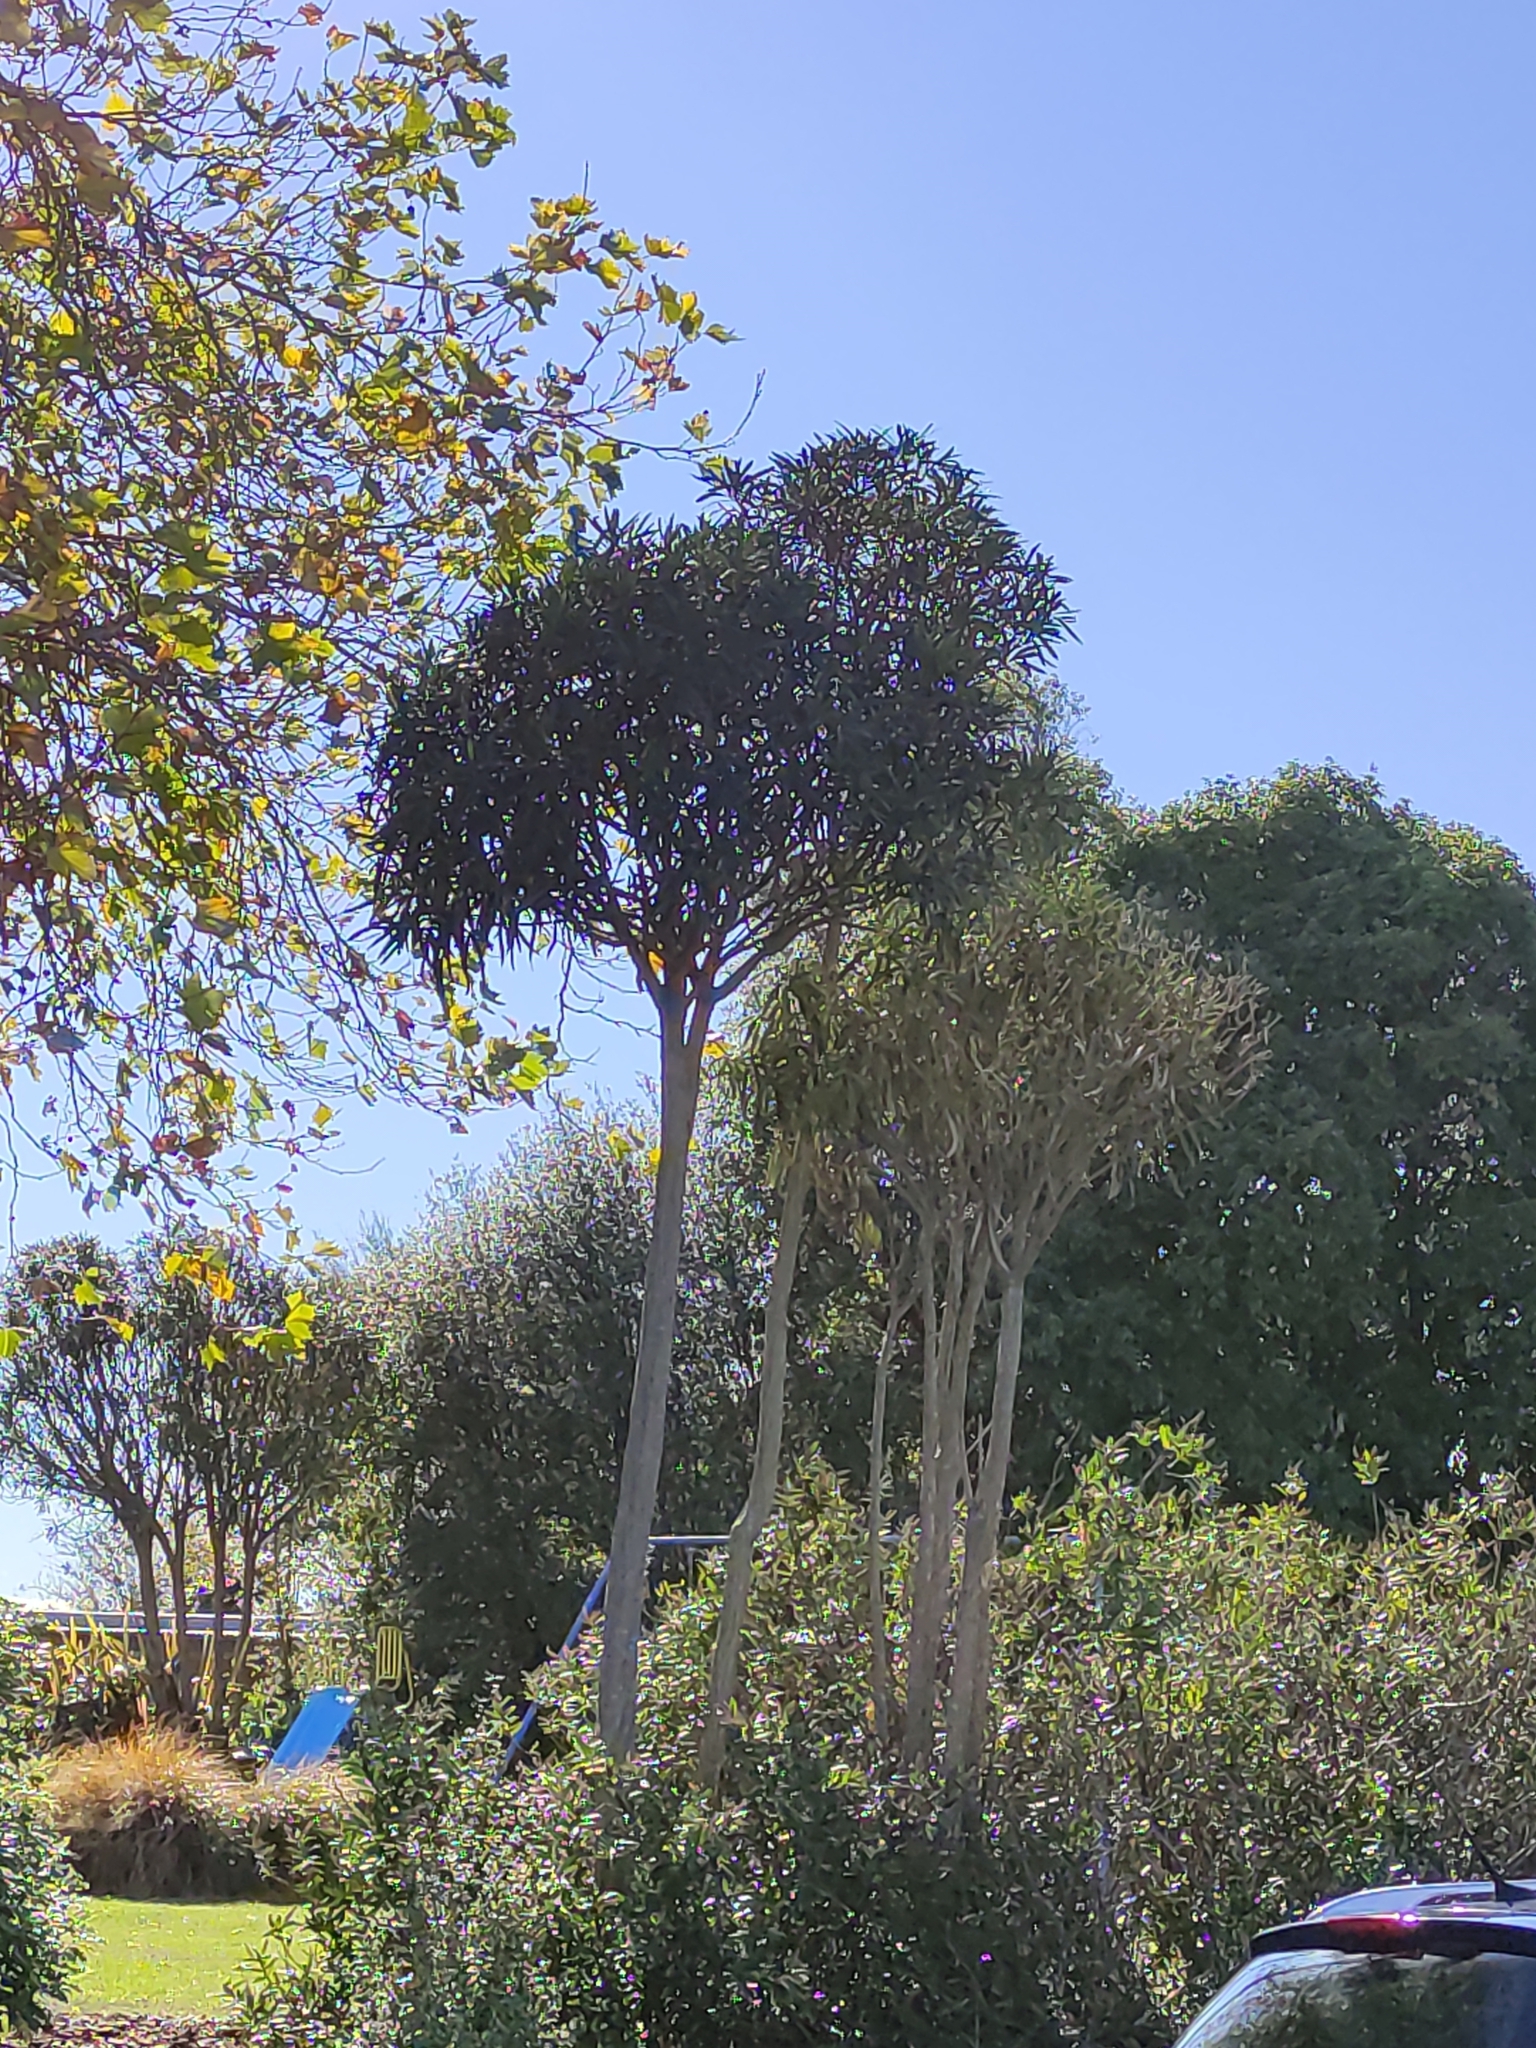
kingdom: Plantae
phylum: Tracheophyta
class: Magnoliopsida
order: Apiales
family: Araliaceae
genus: Pseudopanax
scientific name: Pseudopanax crassifolius
